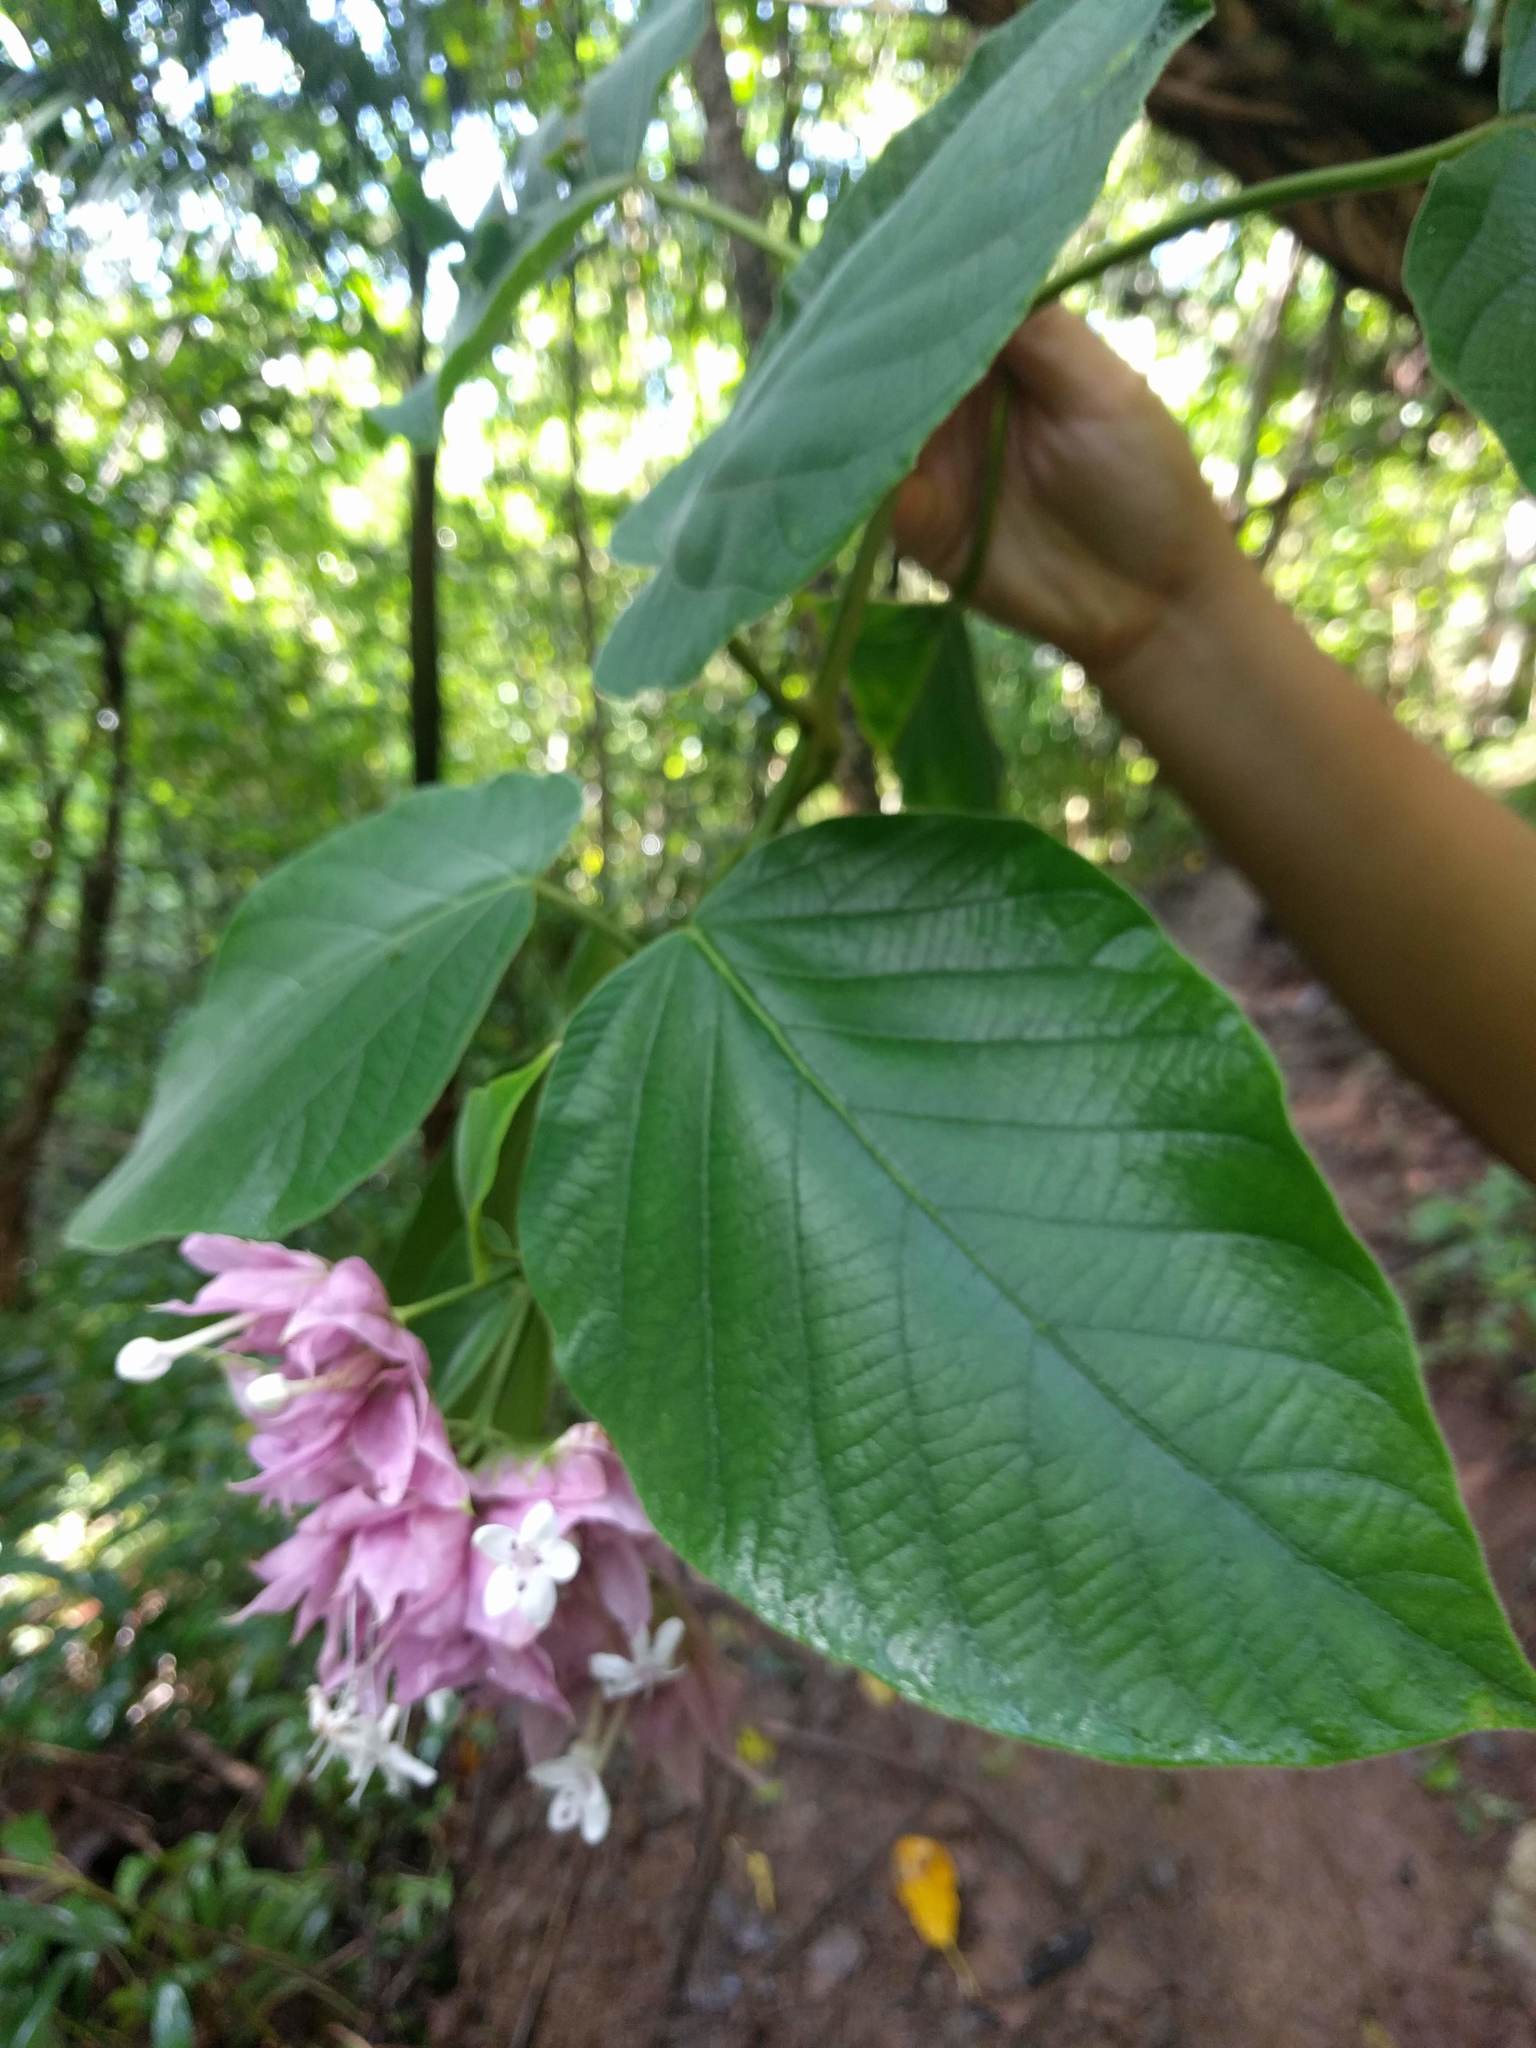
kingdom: Plantae
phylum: Tracheophyta
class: Magnoliopsida
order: Lamiales
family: Lamiaceae
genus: Clerodendrum
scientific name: Clerodendrum macrostegium
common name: Velvetleaf glorybower
